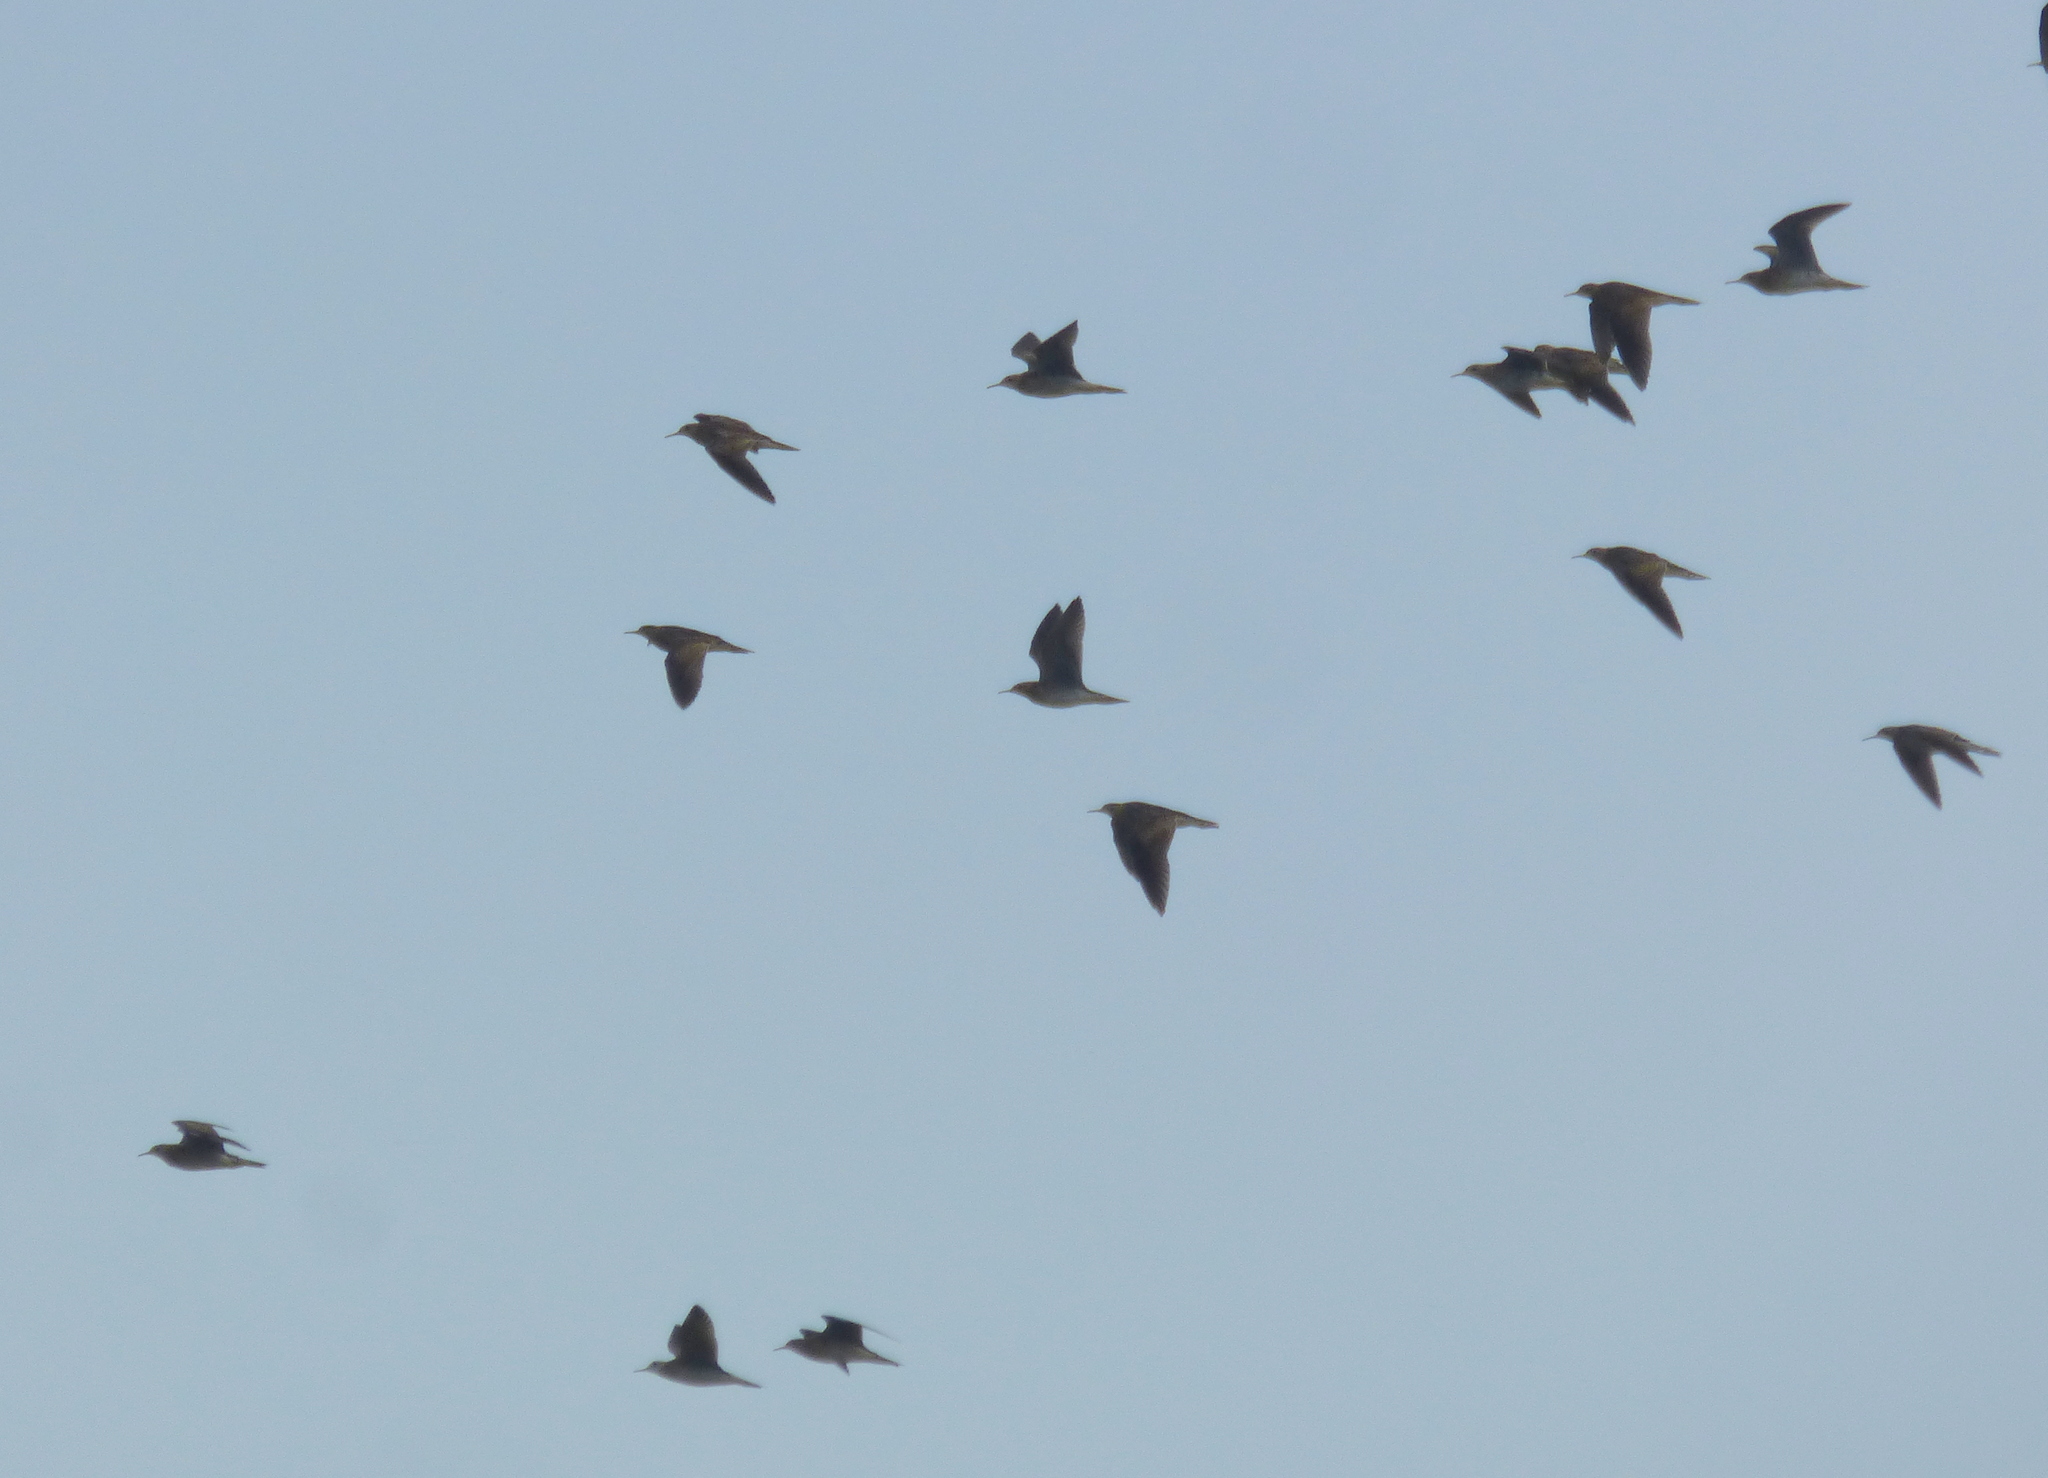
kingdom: Animalia
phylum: Chordata
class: Aves
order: Charadriiformes
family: Scolopacidae
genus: Bartramia
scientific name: Bartramia longicauda
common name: Upland sandpiper
